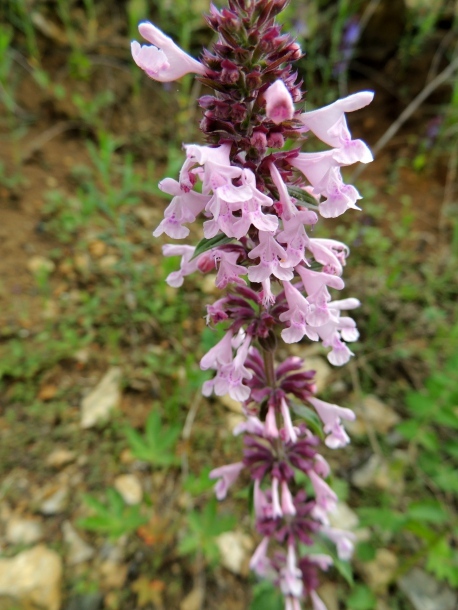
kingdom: Plantae
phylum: Tracheophyta
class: Magnoliopsida
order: Lamiales
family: Lamiaceae
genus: Dracocephalum
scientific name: Dracocephalum nutans
